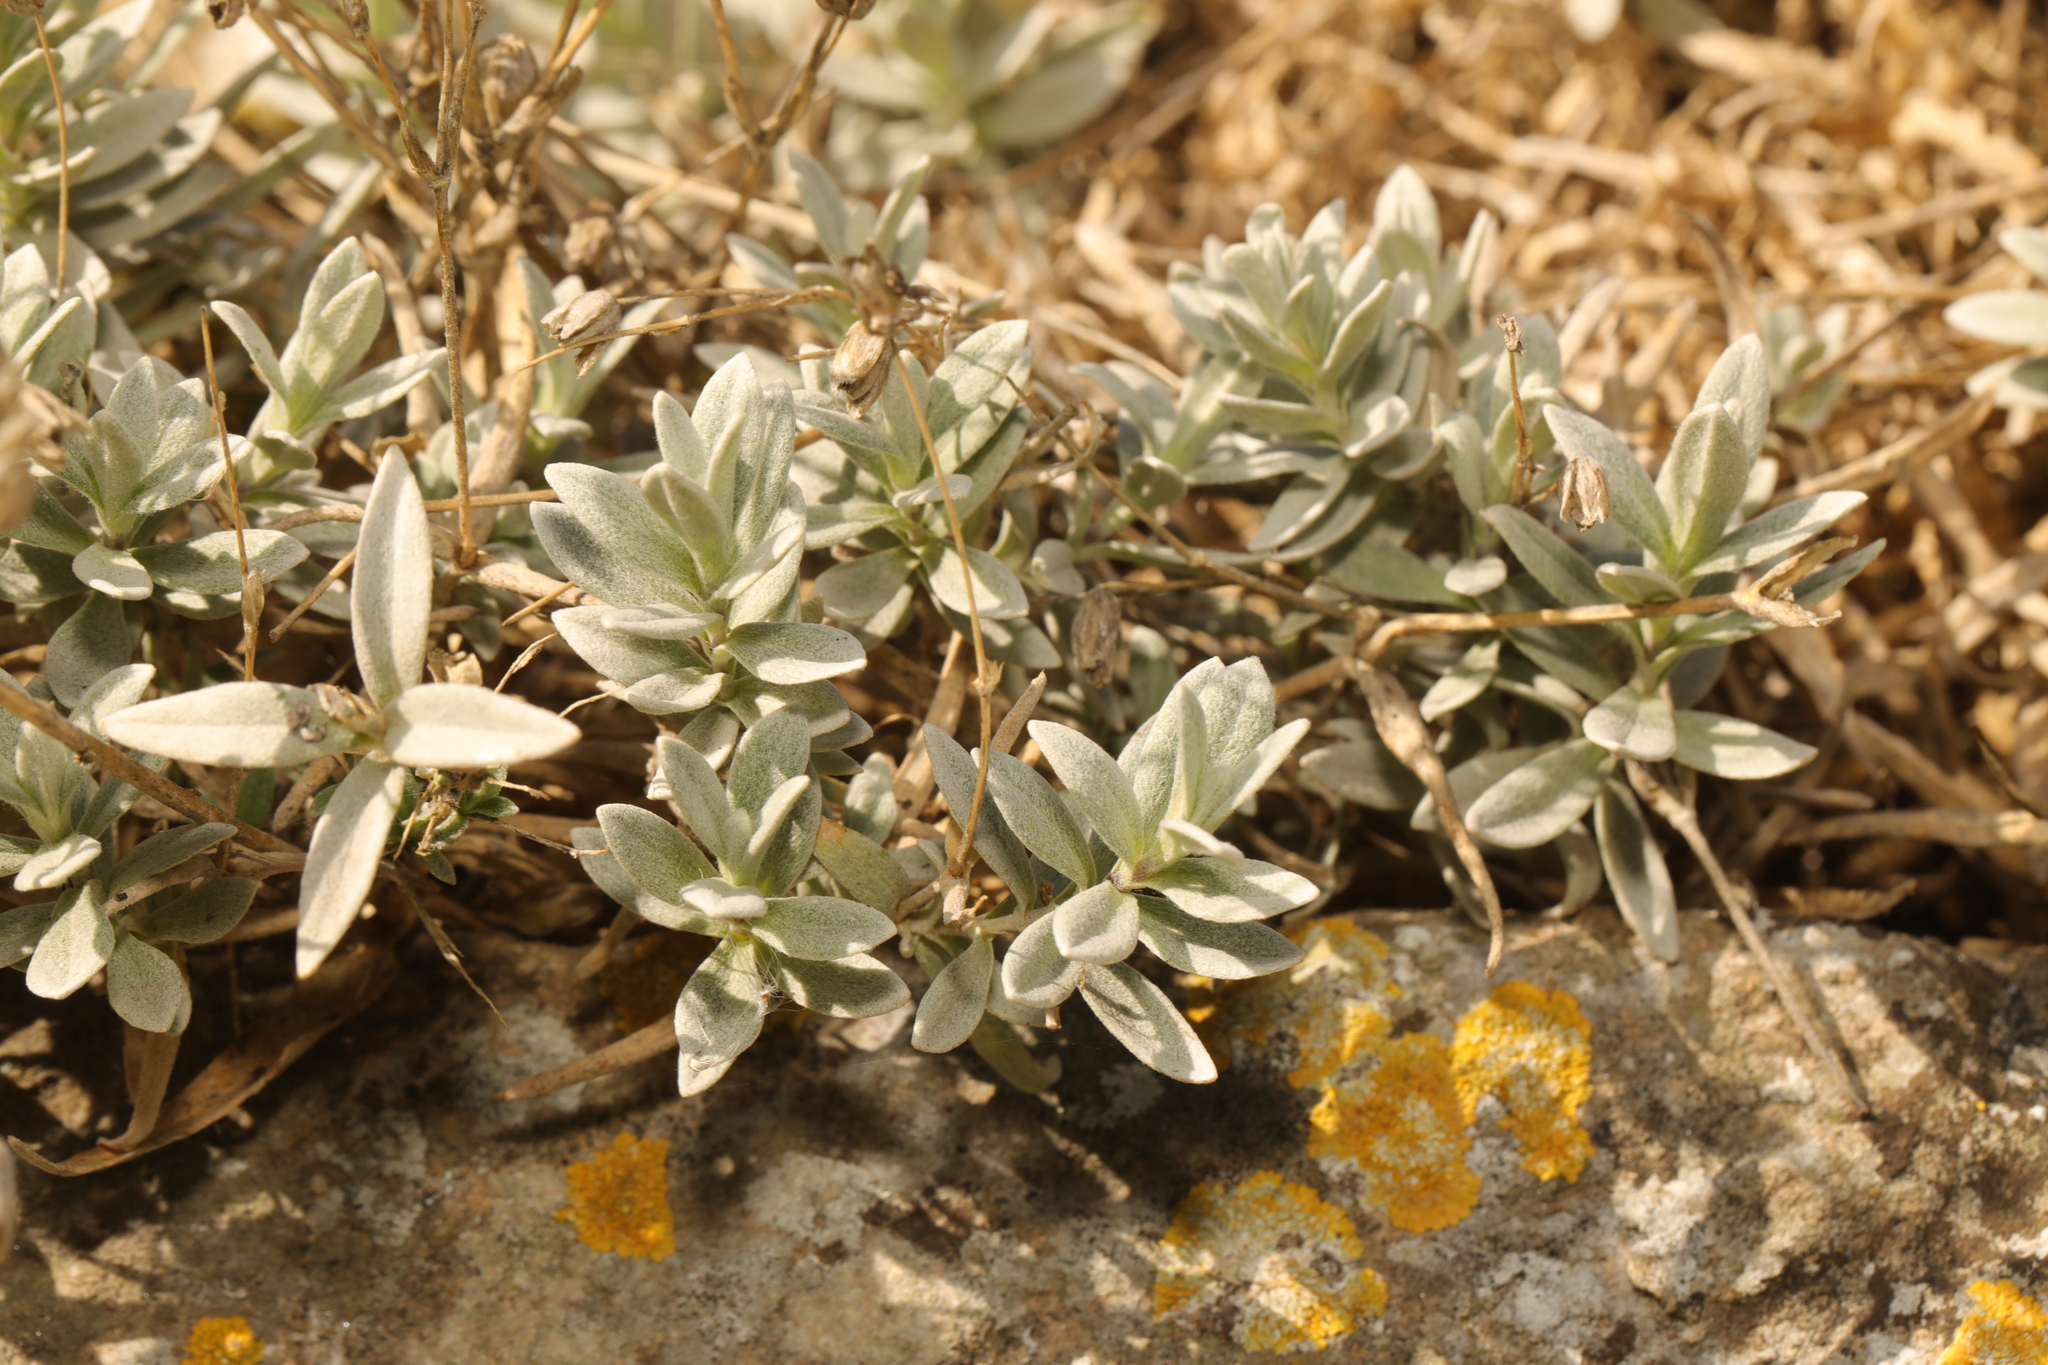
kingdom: Plantae
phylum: Tracheophyta
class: Magnoliopsida
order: Caryophyllales
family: Caryophyllaceae
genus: Cerastium
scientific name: Cerastium tomentosum
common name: Snow-in-summer
